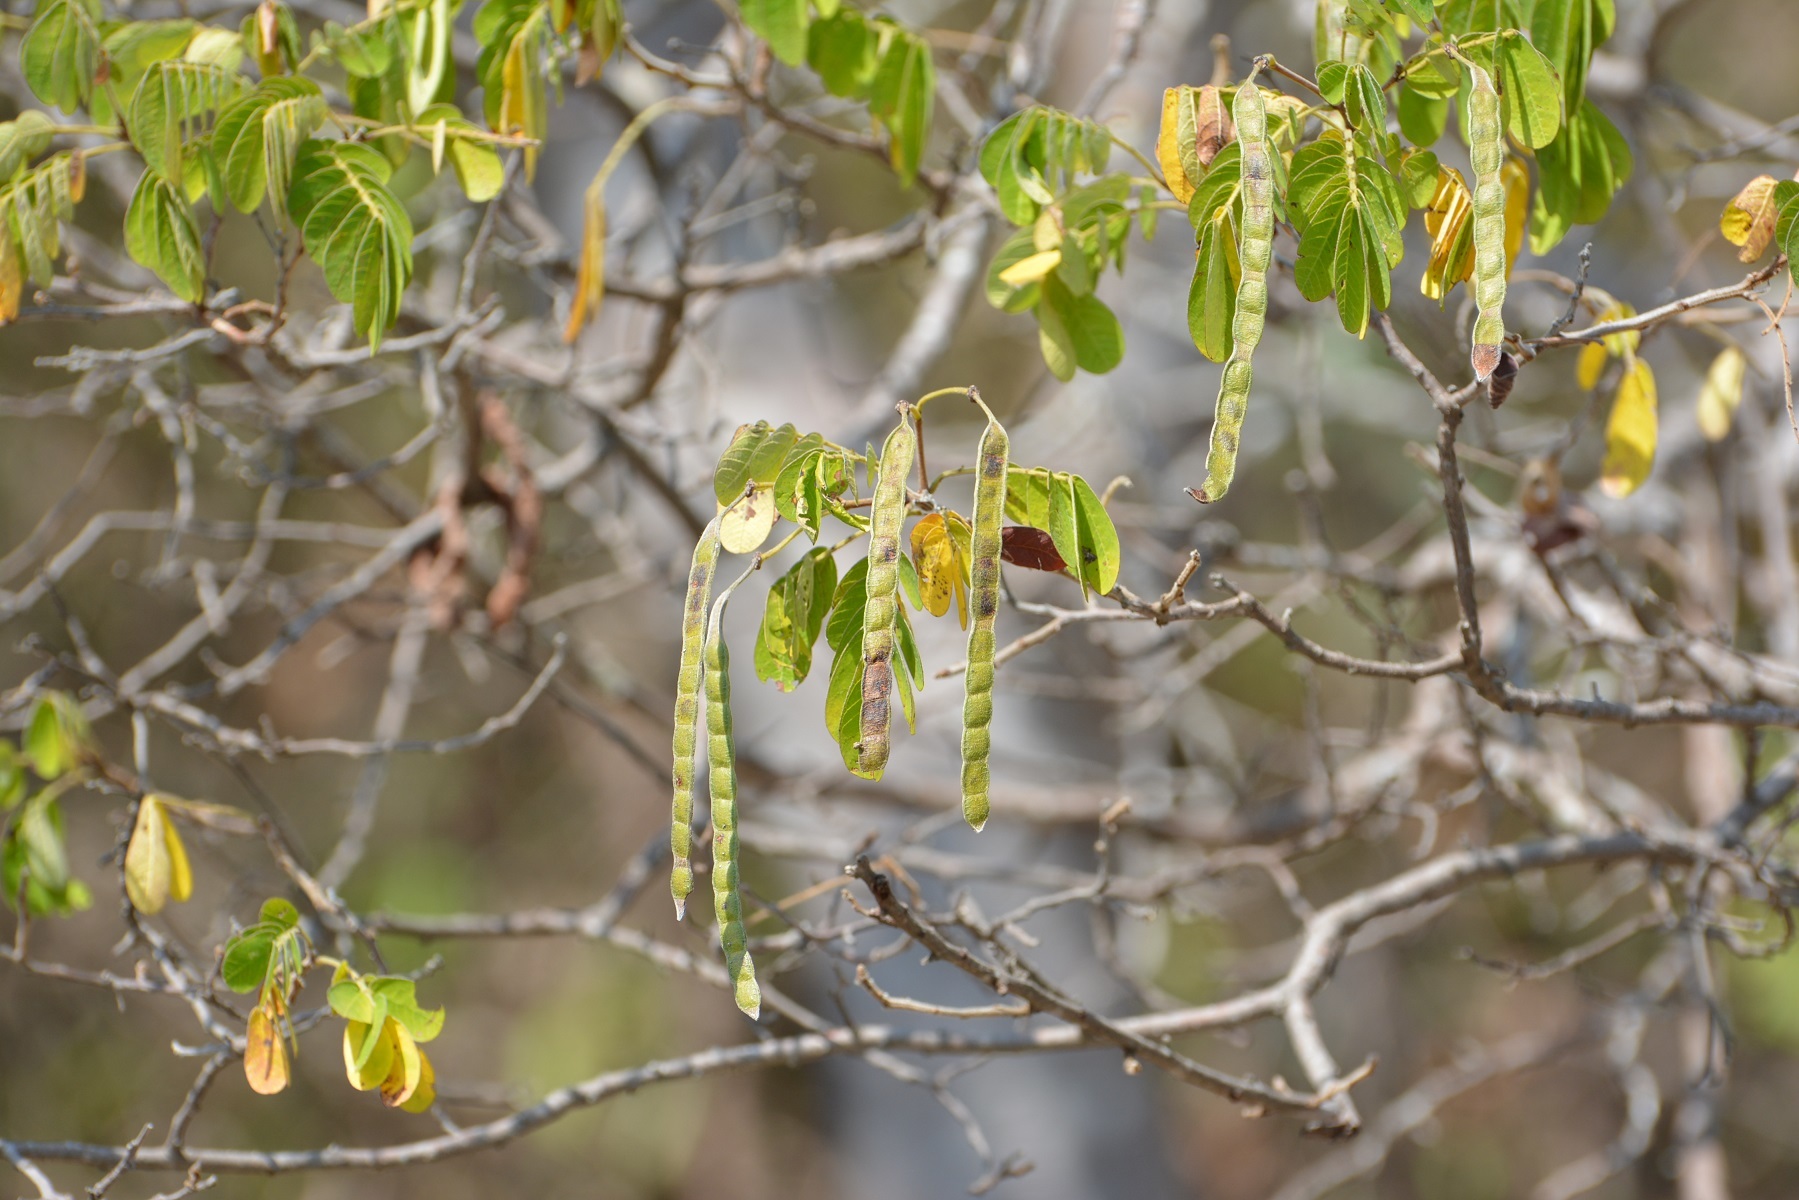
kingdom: Plantae
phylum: Tracheophyta
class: Magnoliopsida
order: Fabales
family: Fabaceae
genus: Senna
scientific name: Senna skinneri
